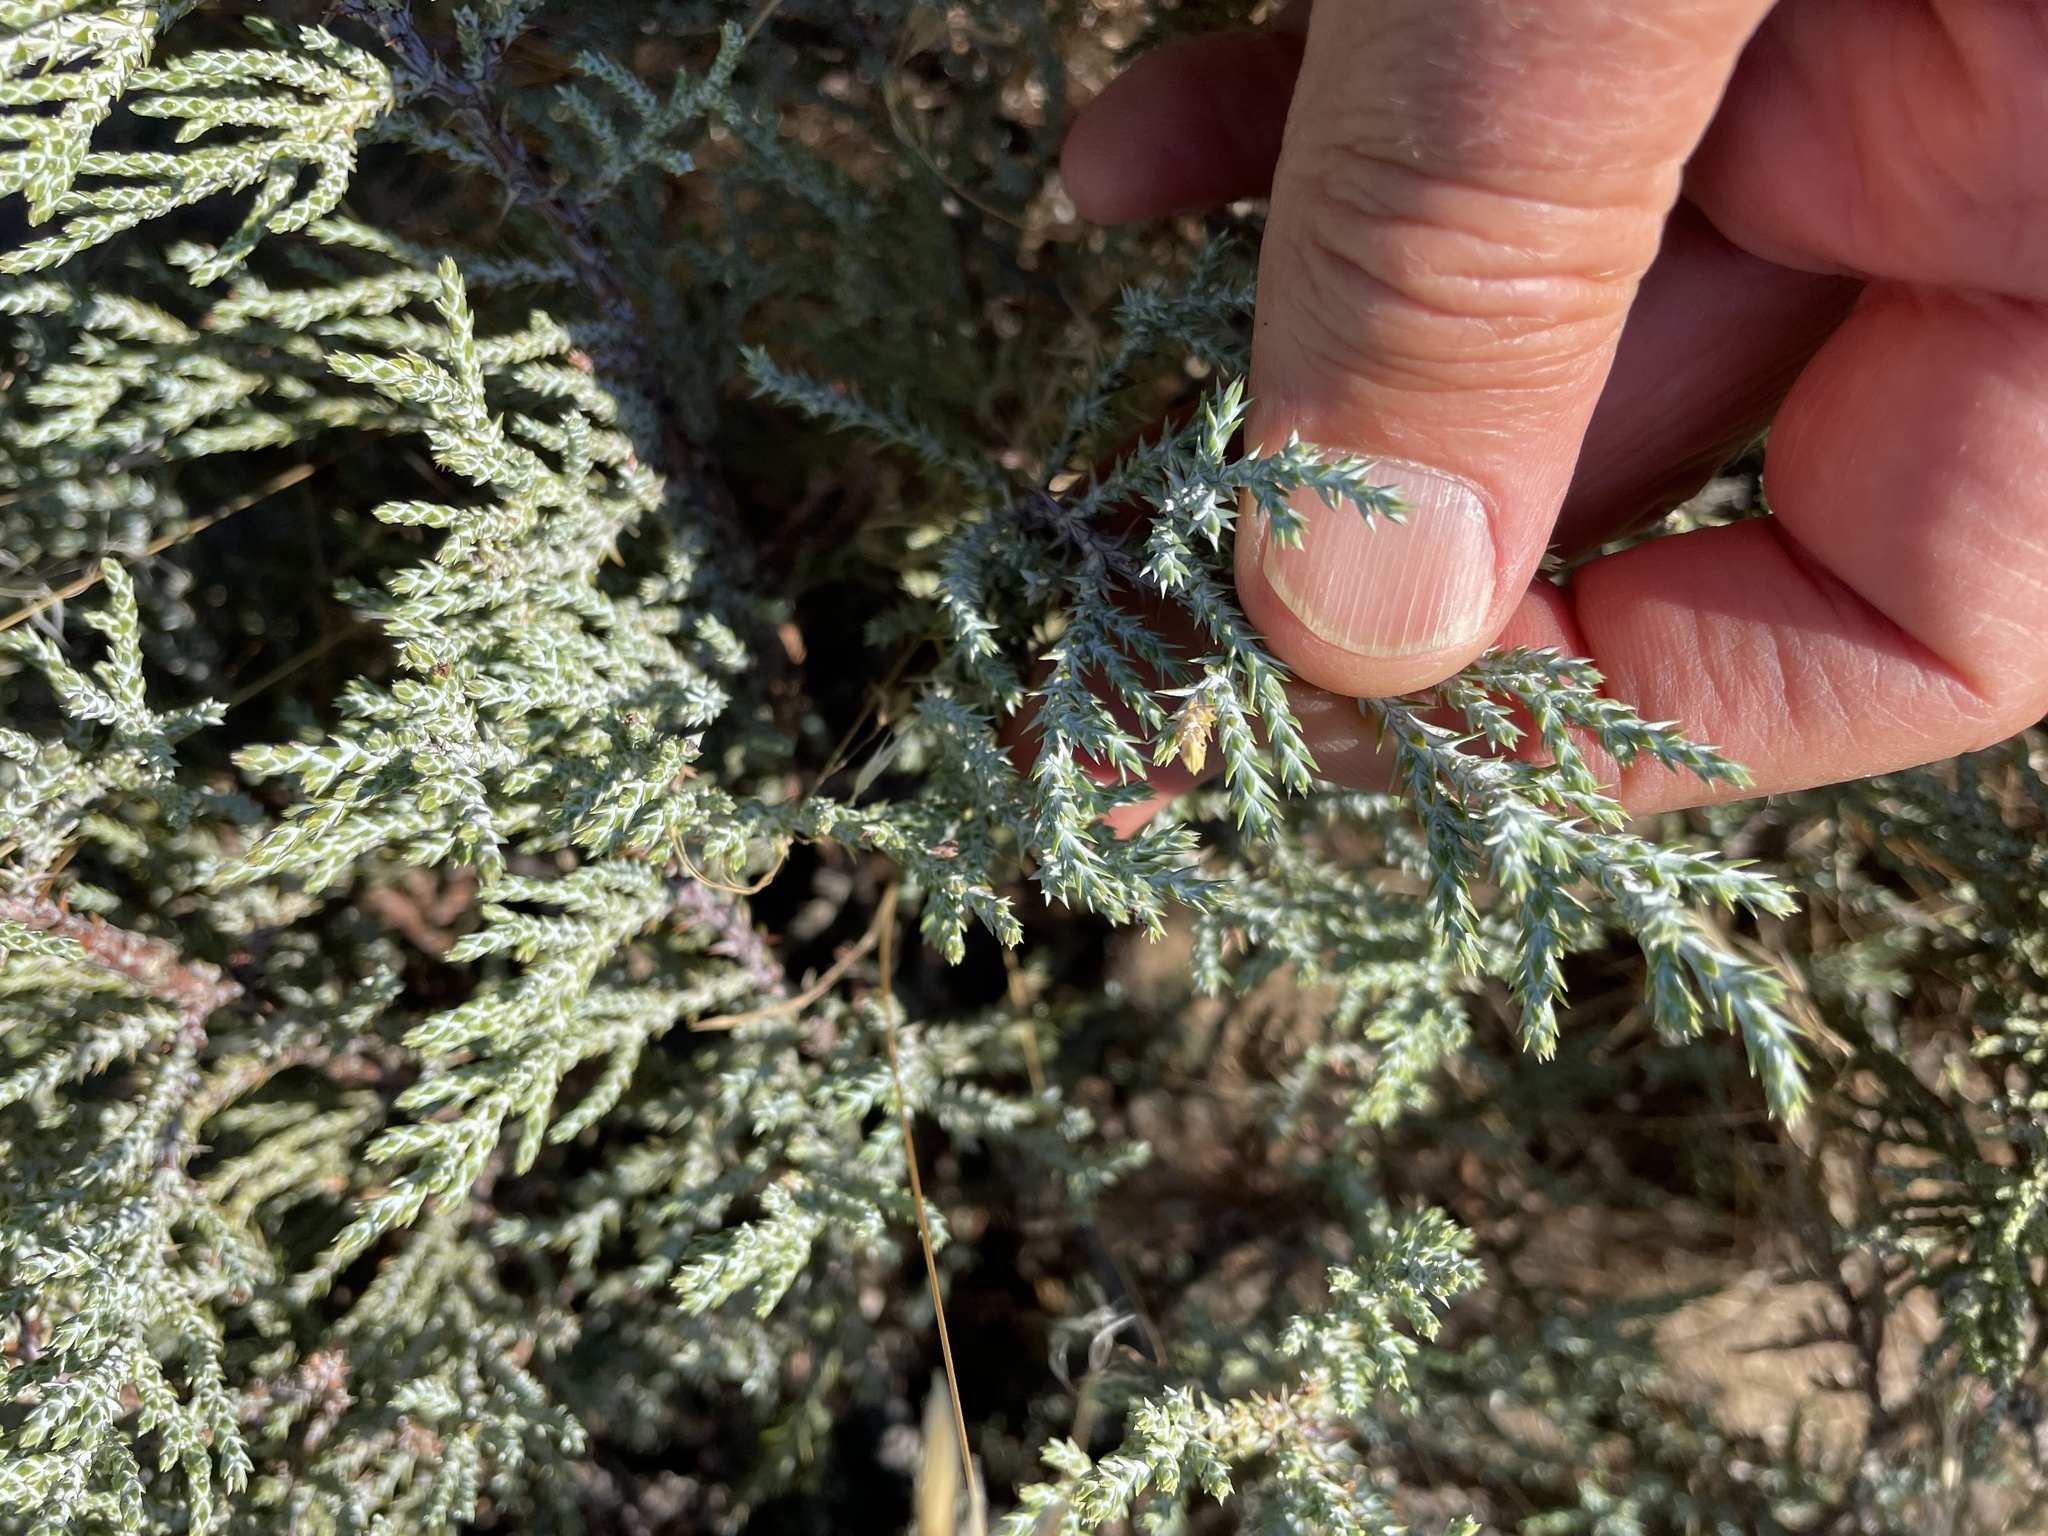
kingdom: Plantae
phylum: Tracheophyta
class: Pinopsida
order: Pinales
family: Cupressaceae
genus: Juniperus
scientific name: Juniperus occidentalis
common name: Western juniper
